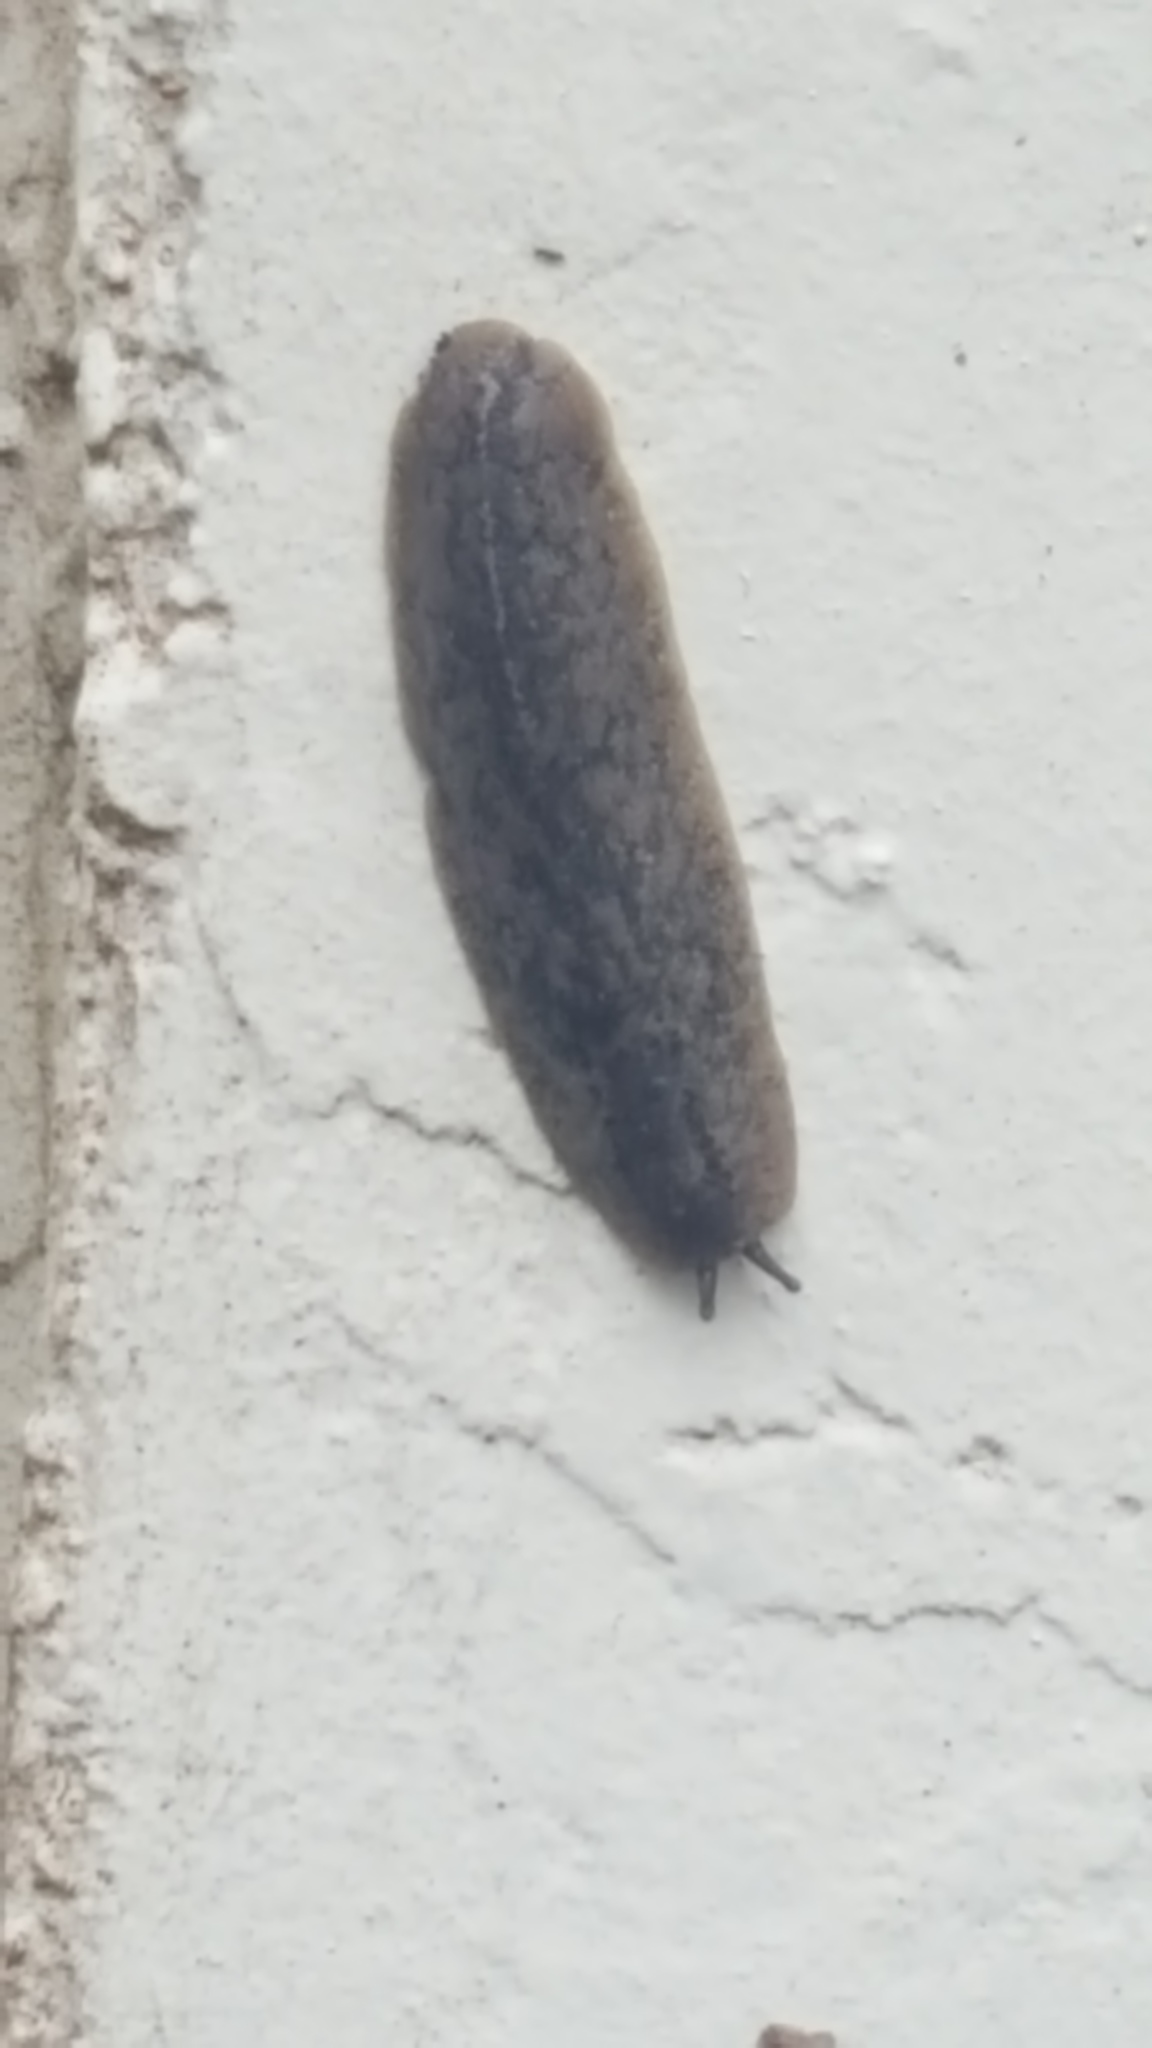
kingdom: Animalia
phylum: Mollusca
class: Gastropoda
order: Systellommatophora
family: Veronicellidae
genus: Leidyula
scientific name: Leidyula floridana
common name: Florida leatherleaf
